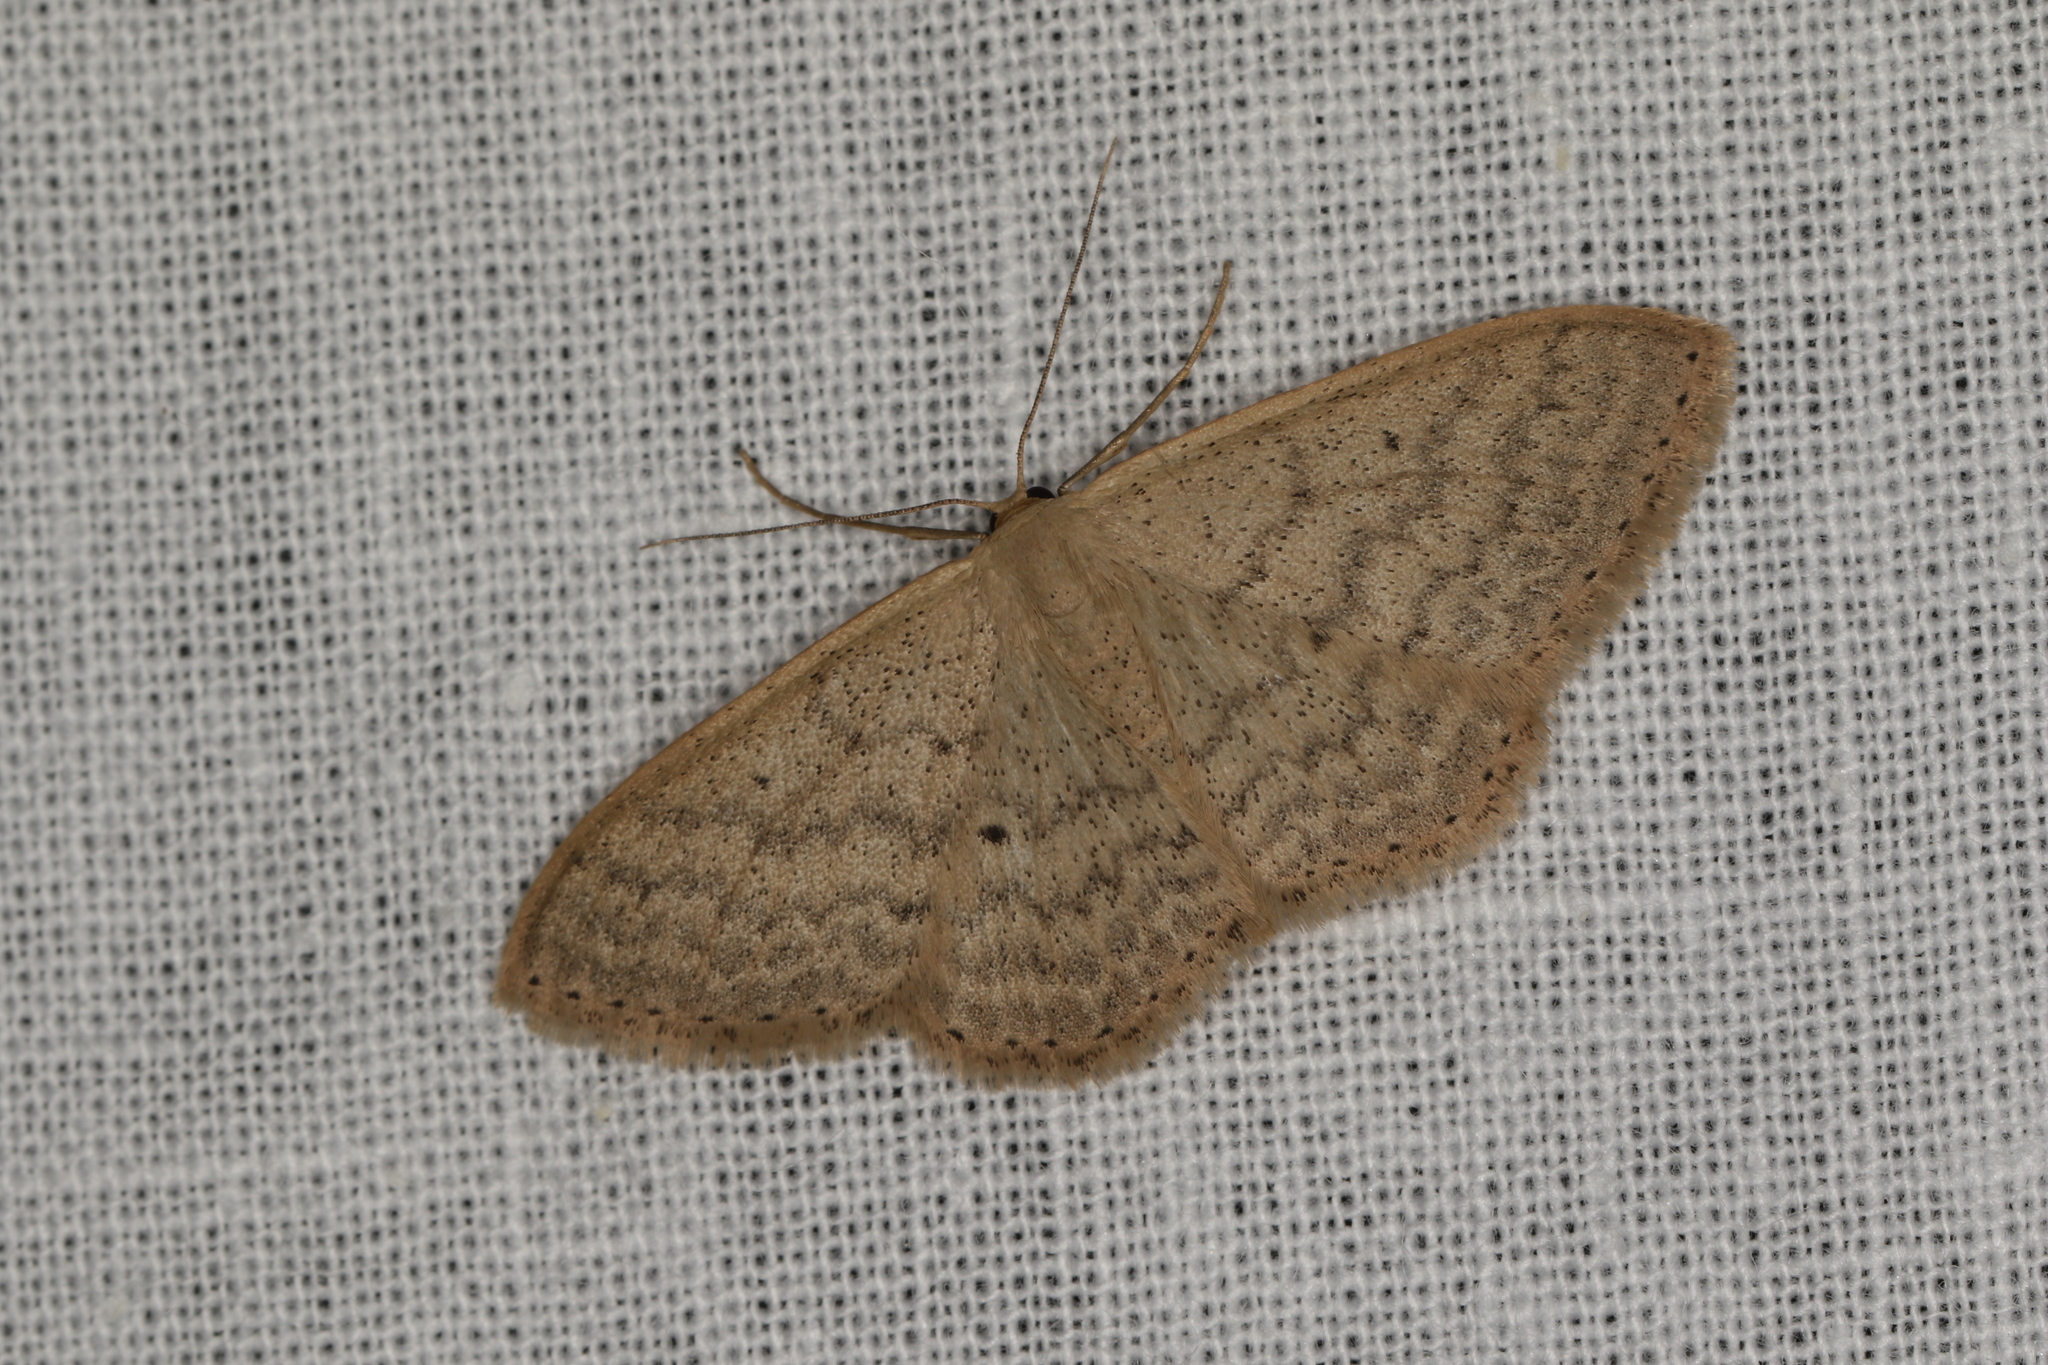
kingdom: Animalia
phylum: Arthropoda
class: Insecta
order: Lepidoptera
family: Geometridae
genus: Scopula
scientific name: Scopula optivata
